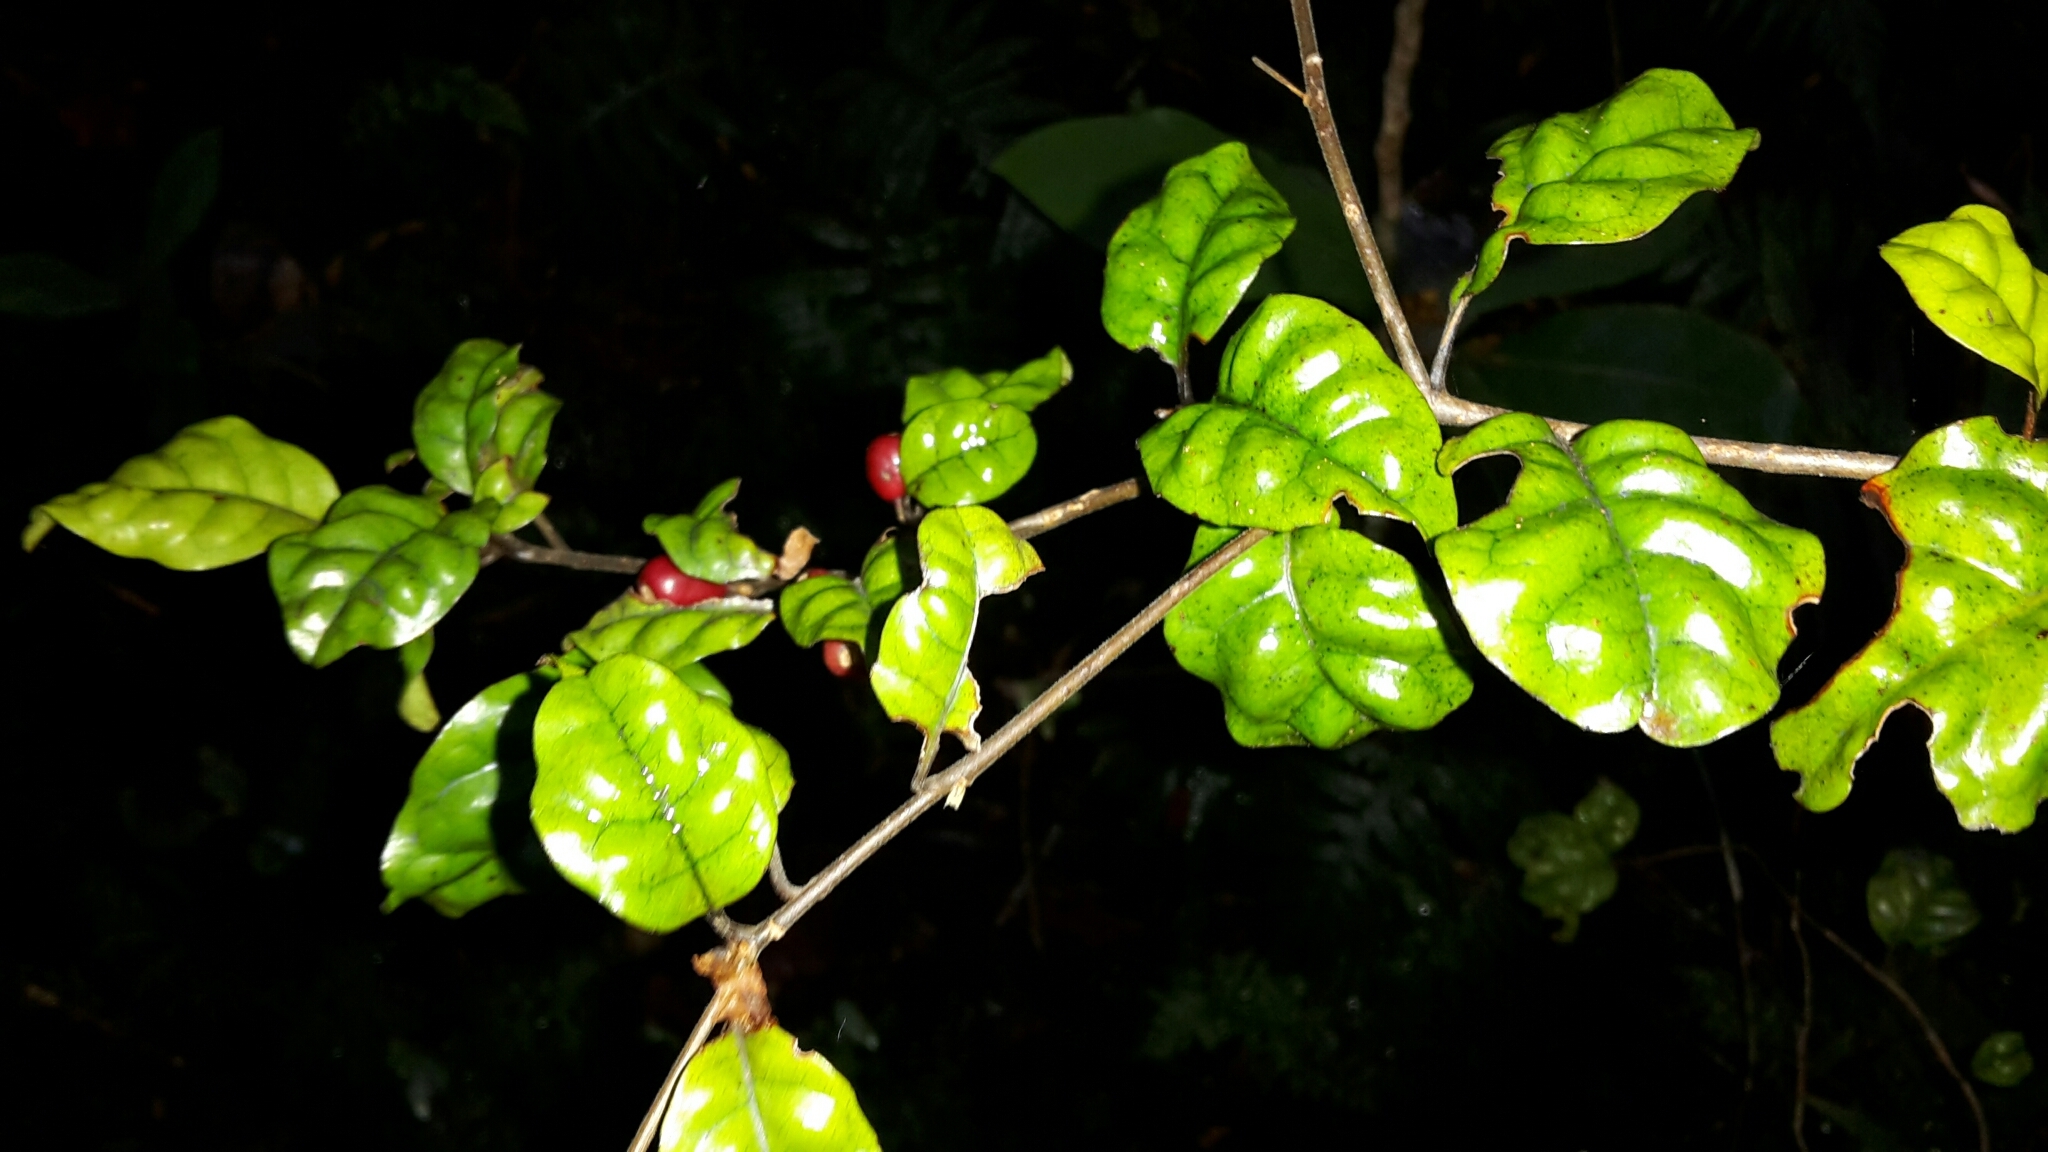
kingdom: Plantae
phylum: Tracheophyta
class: Magnoliopsida
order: Asterales
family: Alseuosmiaceae
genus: Alseuosmia
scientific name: Alseuosmia banksii
